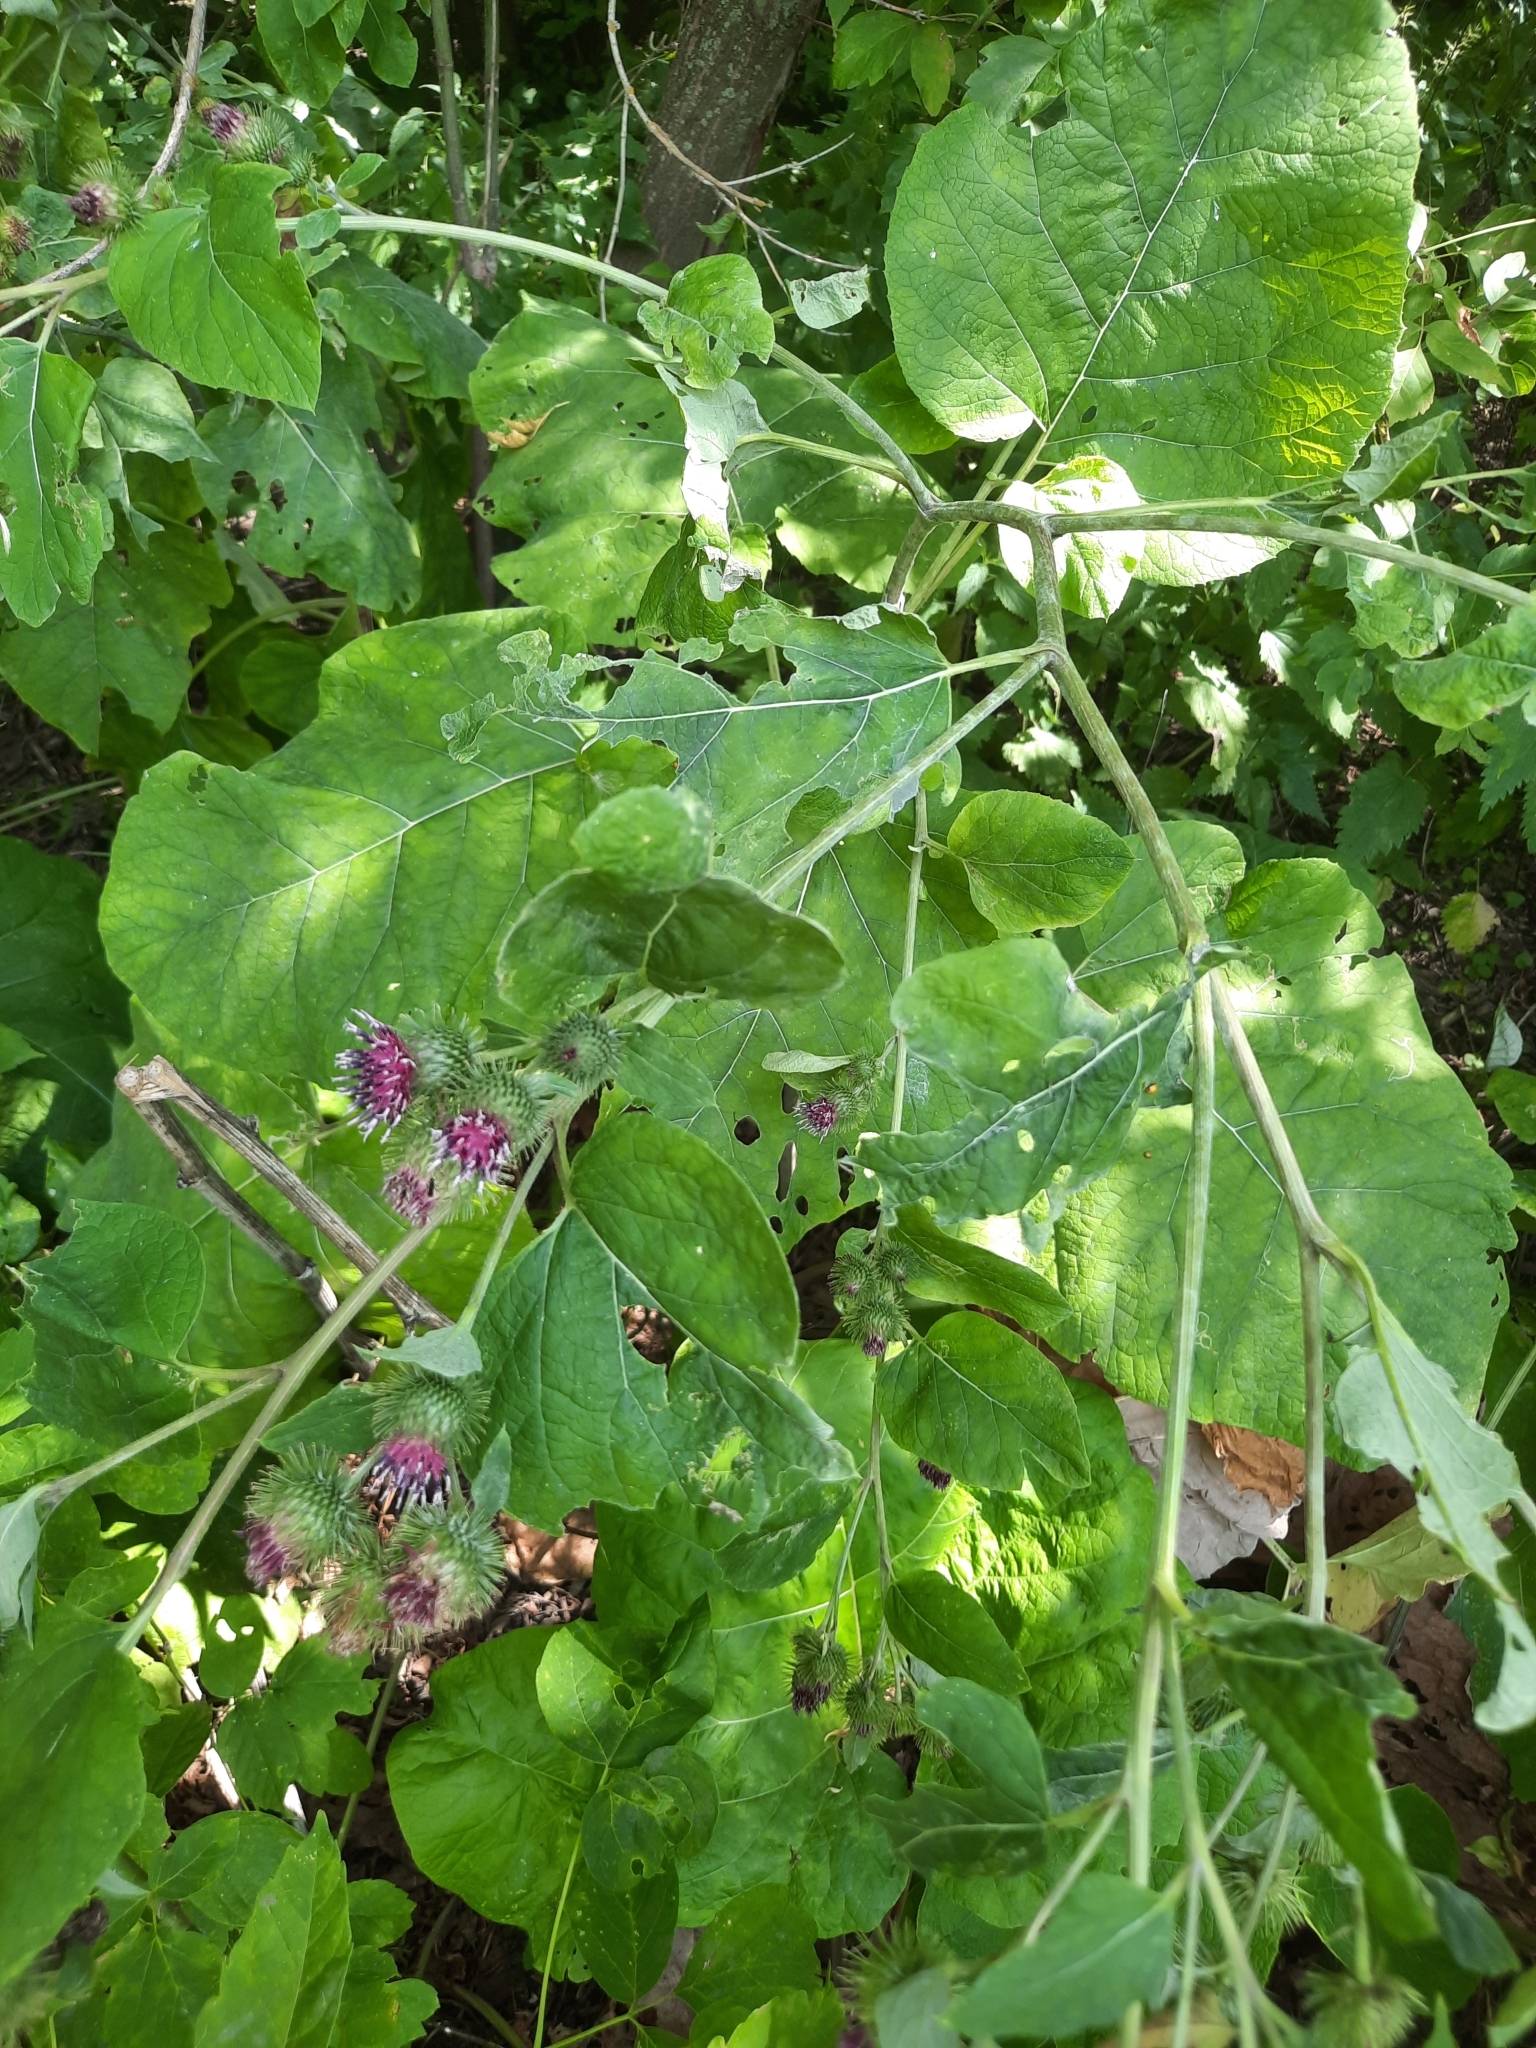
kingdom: Plantae
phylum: Tracheophyta
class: Magnoliopsida
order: Asterales
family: Asteraceae
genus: Arctium
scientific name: Arctium lappa
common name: Greater burdock
